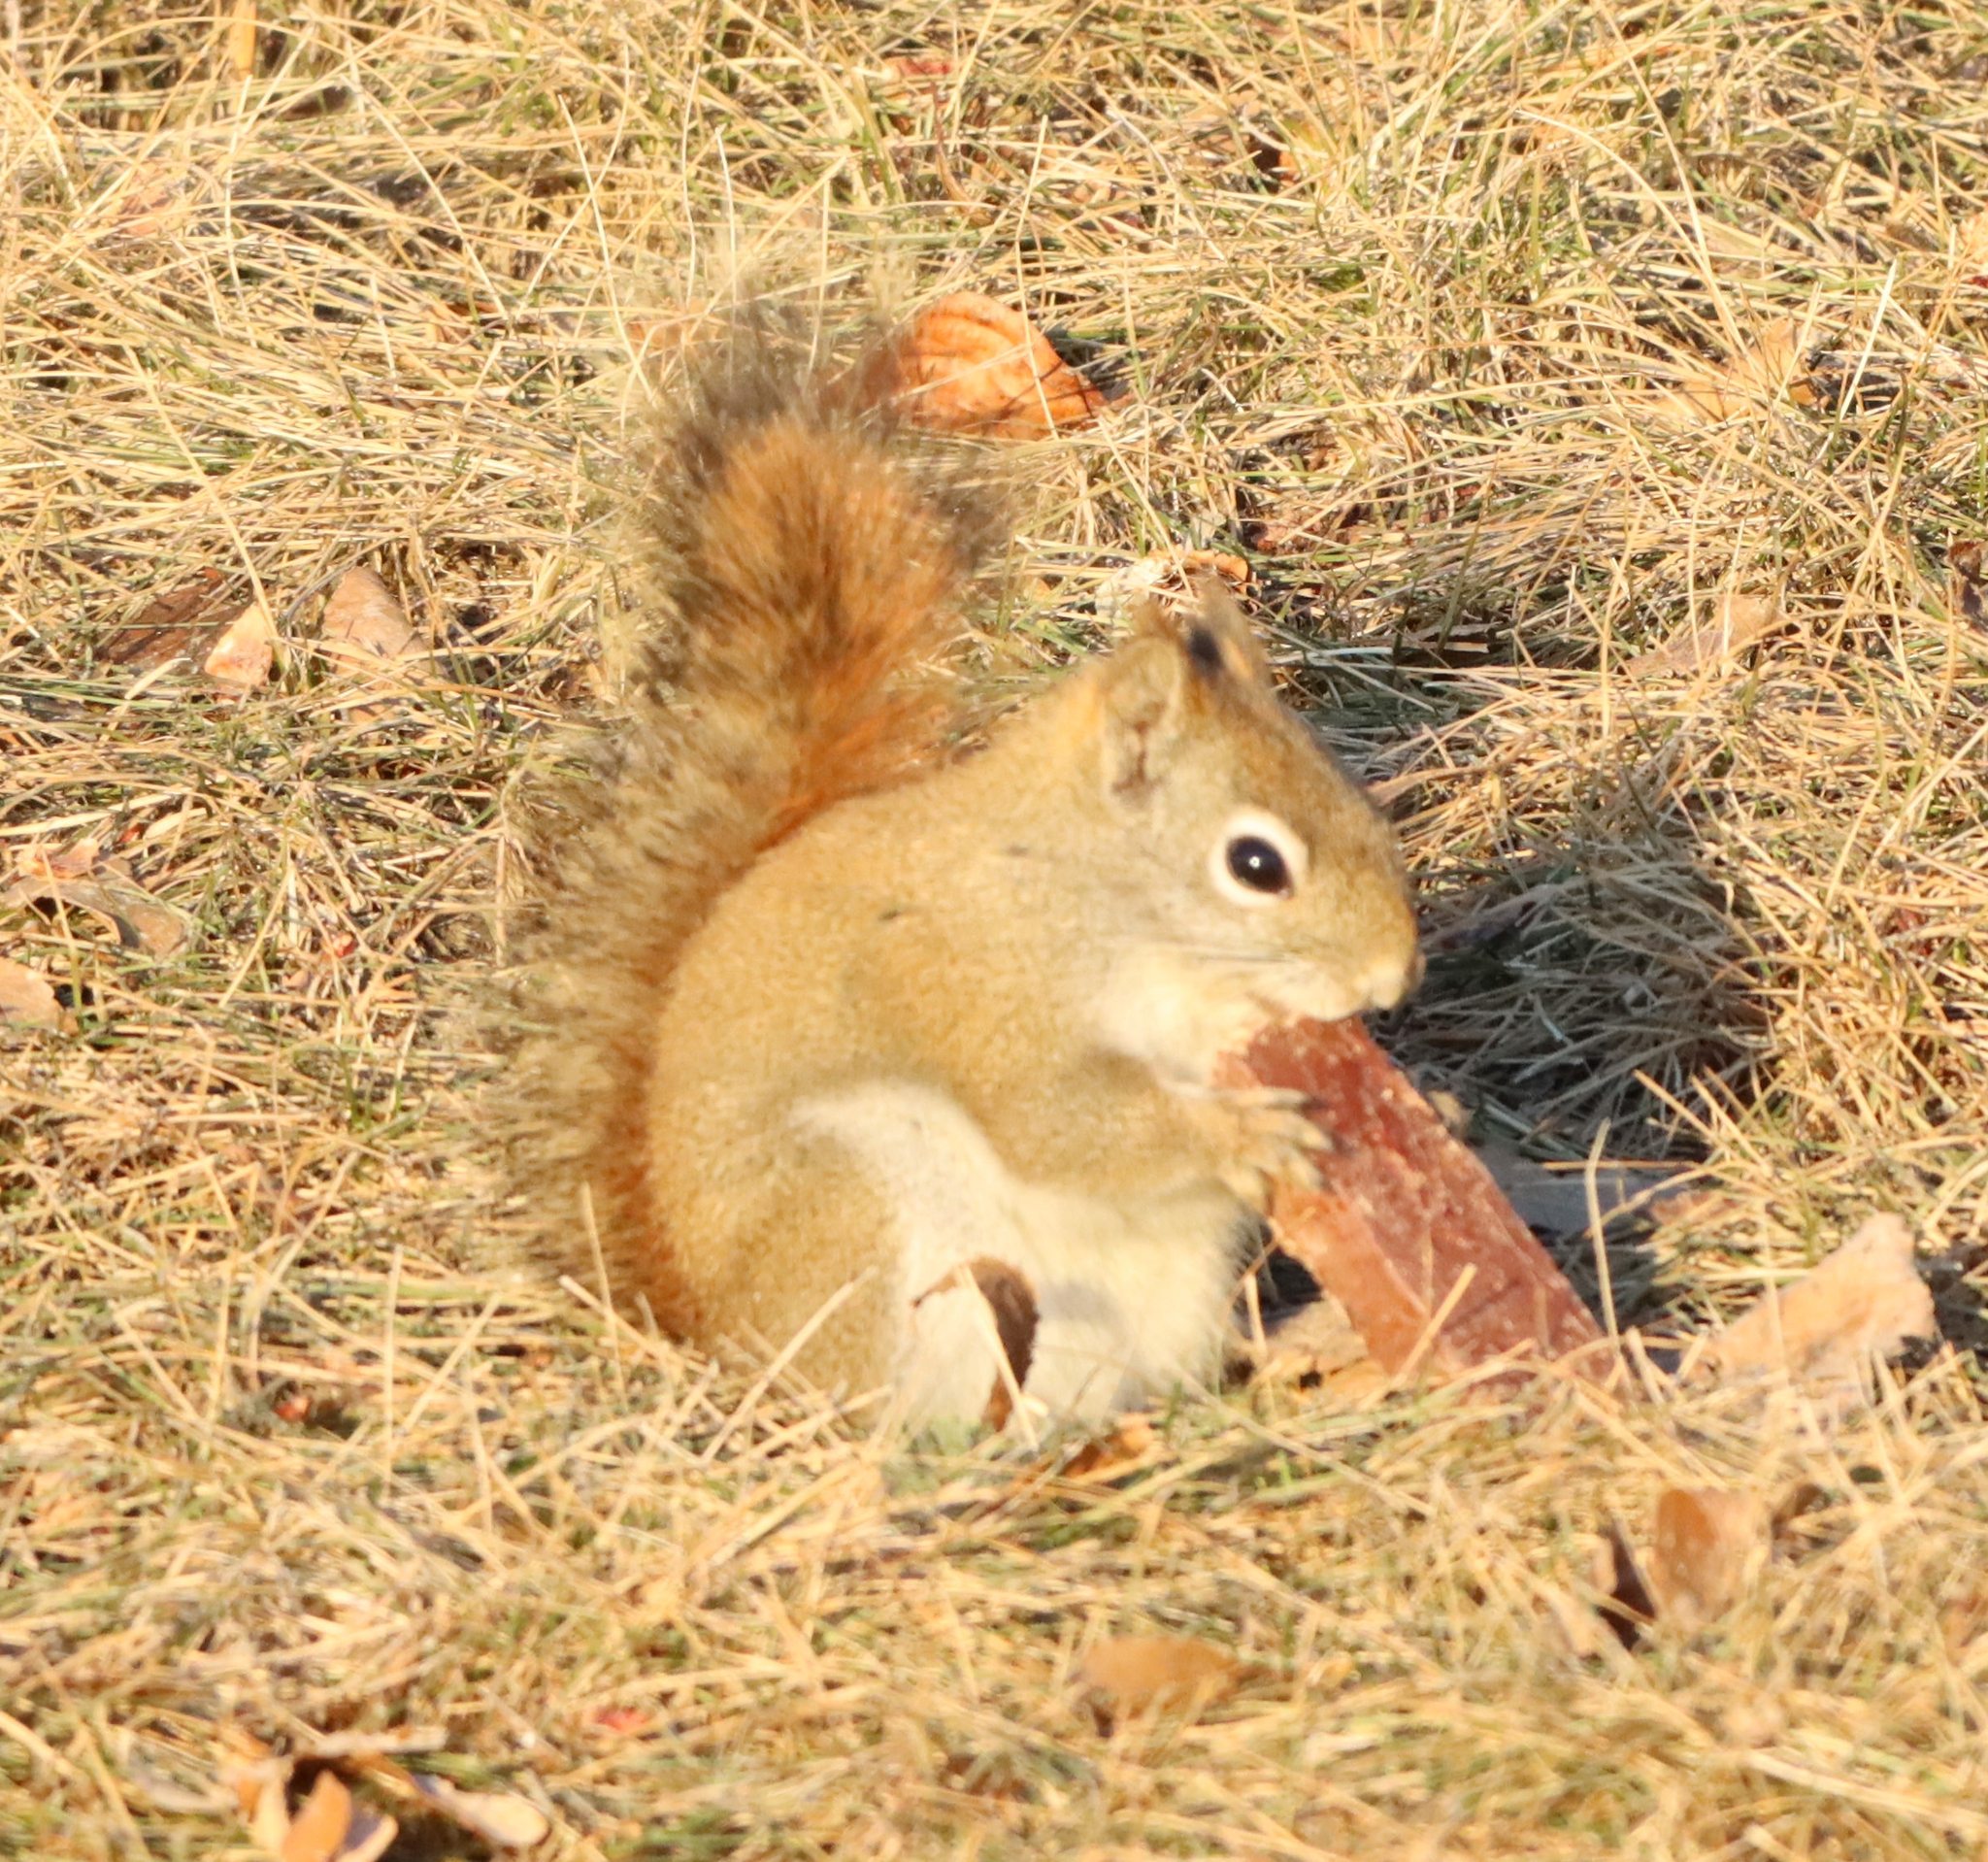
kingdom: Animalia
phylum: Chordata
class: Mammalia
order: Rodentia
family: Sciuridae
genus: Tamiasciurus
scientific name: Tamiasciurus hudsonicus
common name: Red squirrel
